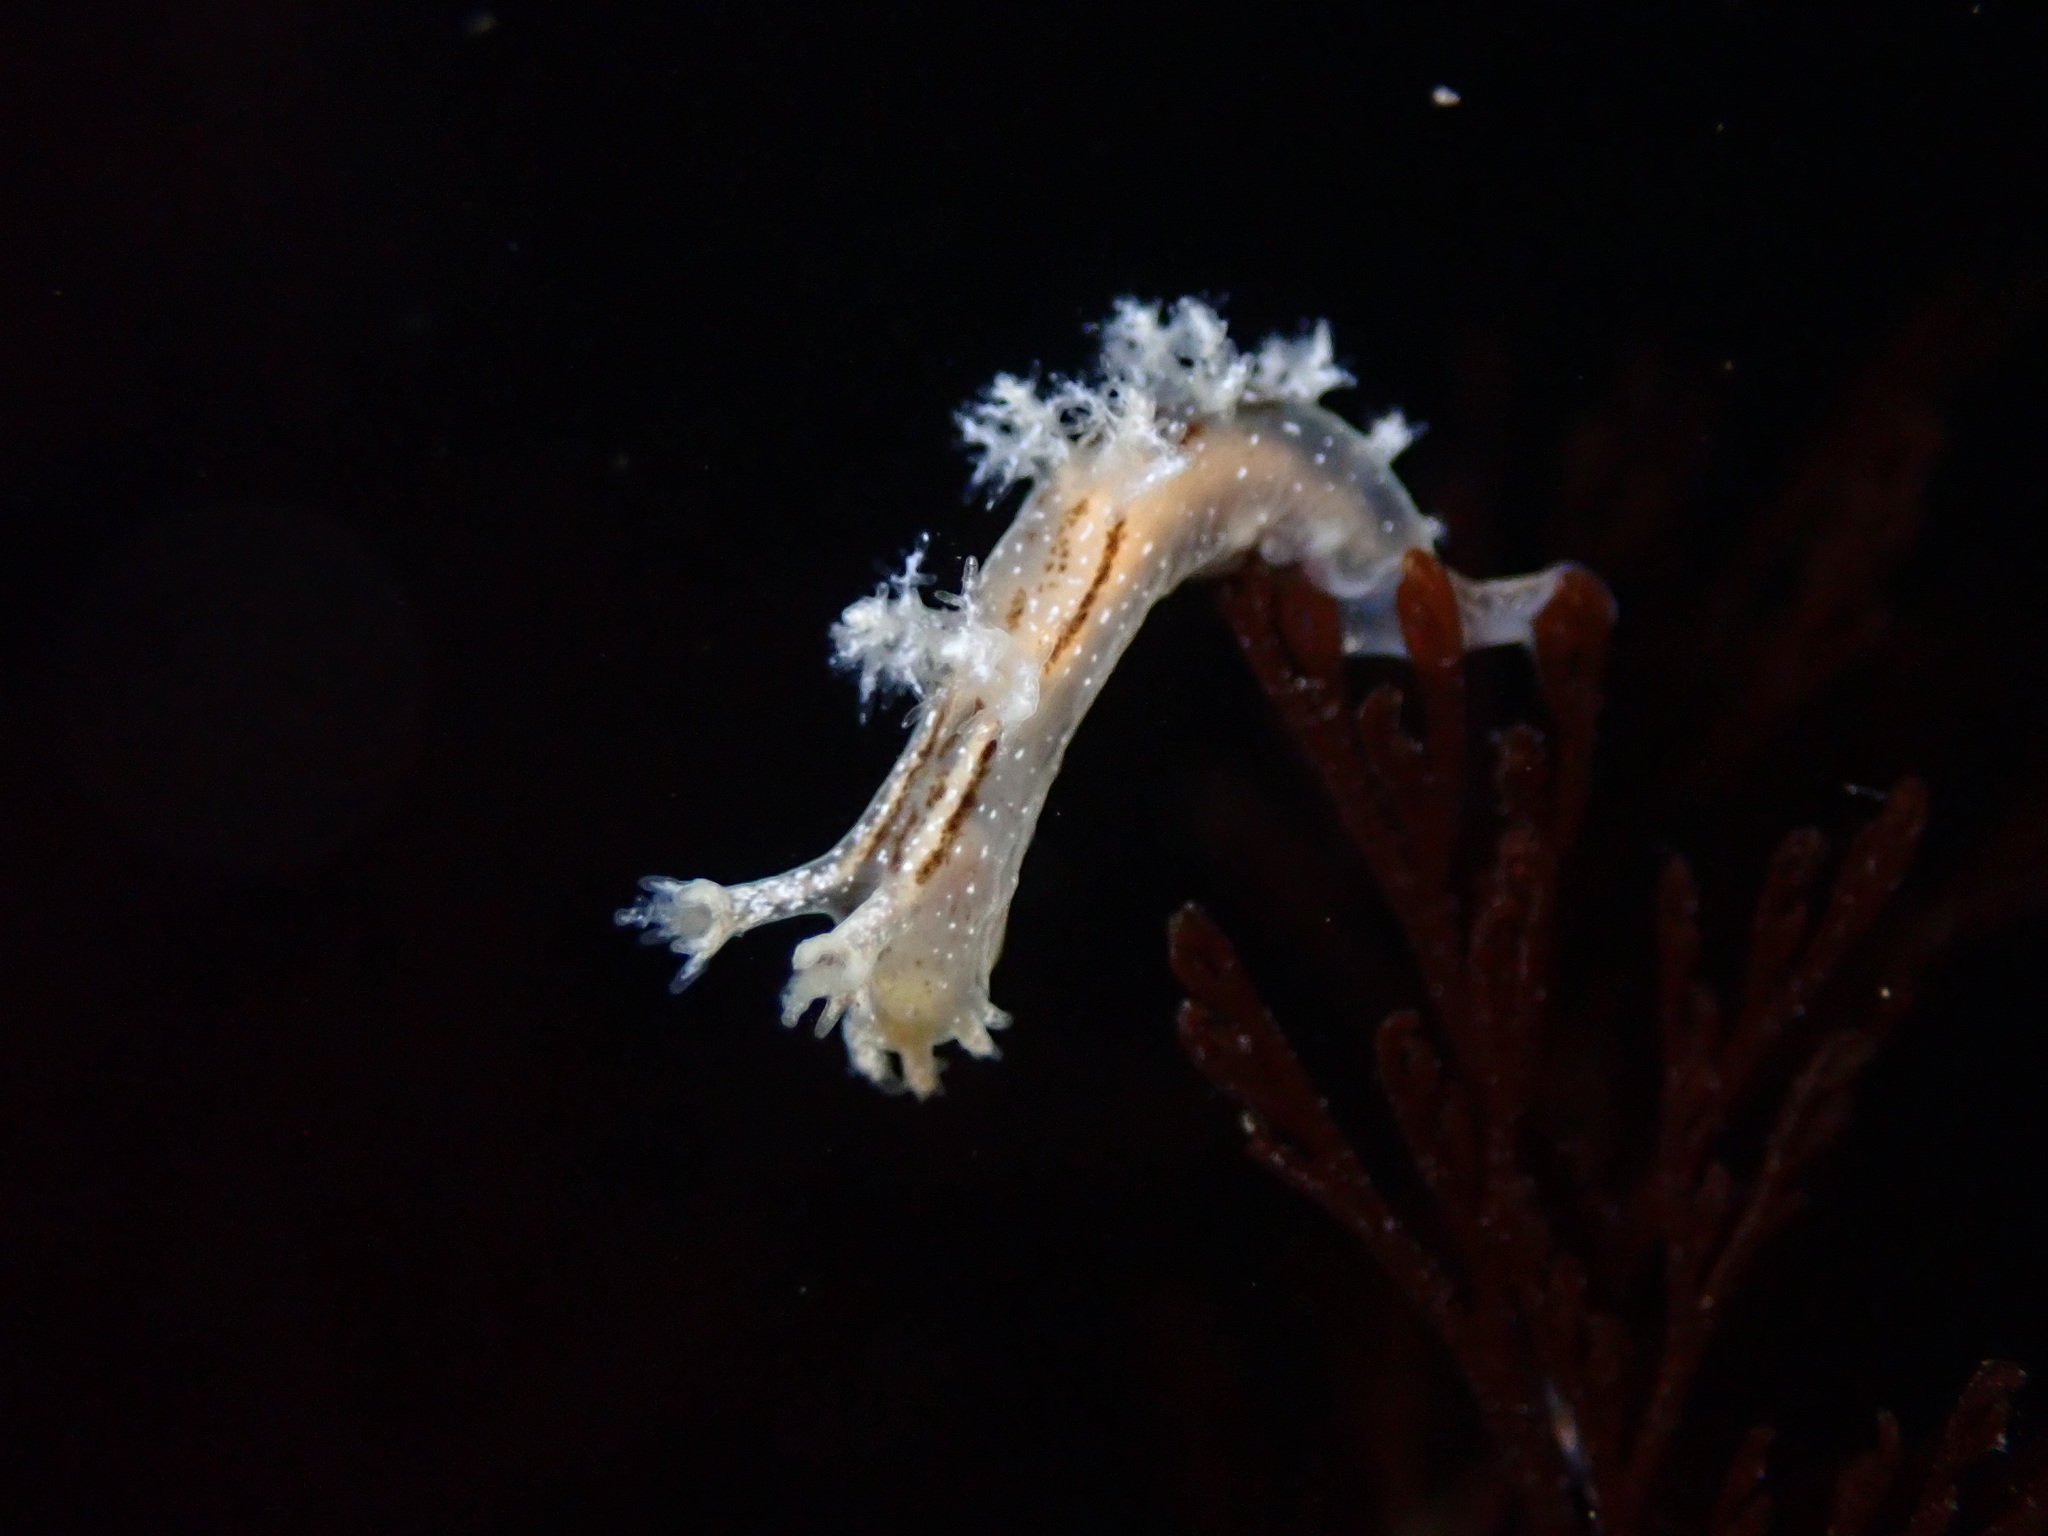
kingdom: Animalia
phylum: Mollusca
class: Gastropoda
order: Nudibranchia
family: Dendronotidae
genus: Dendronotus
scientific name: Dendronotus subramosus
